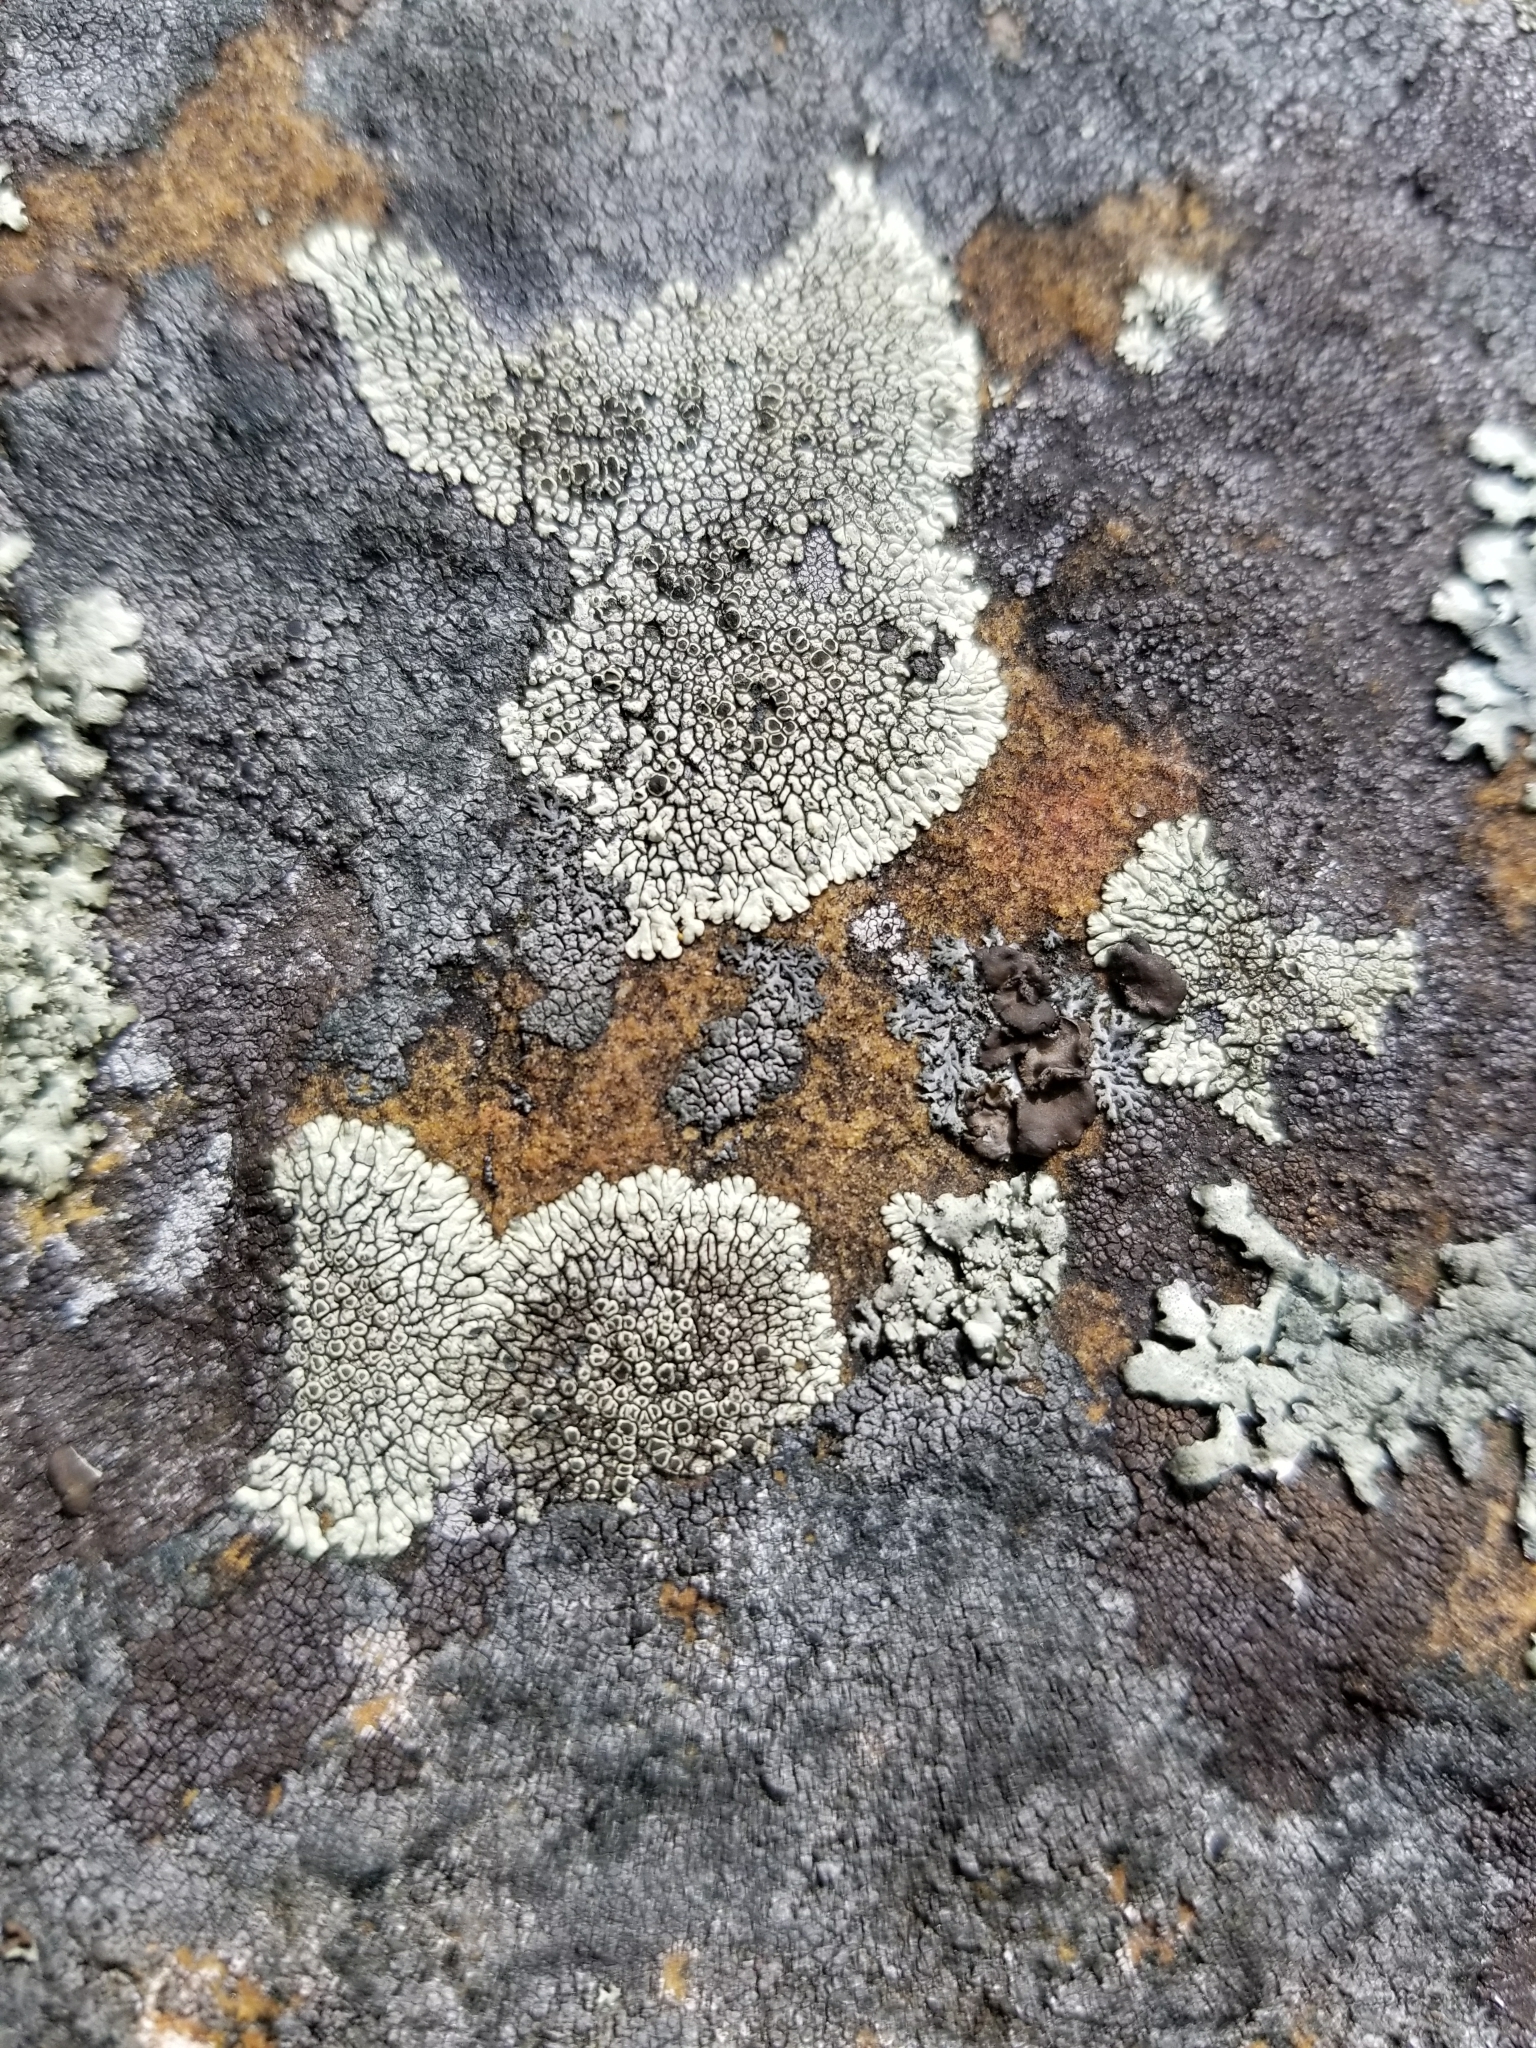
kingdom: Fungi
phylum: Ascomycota
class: Lecanoromycetes
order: Caliciales
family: Caliciaceae
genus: Dimelaena
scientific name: Dimelaena oreina
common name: Golden moonglow lichen
